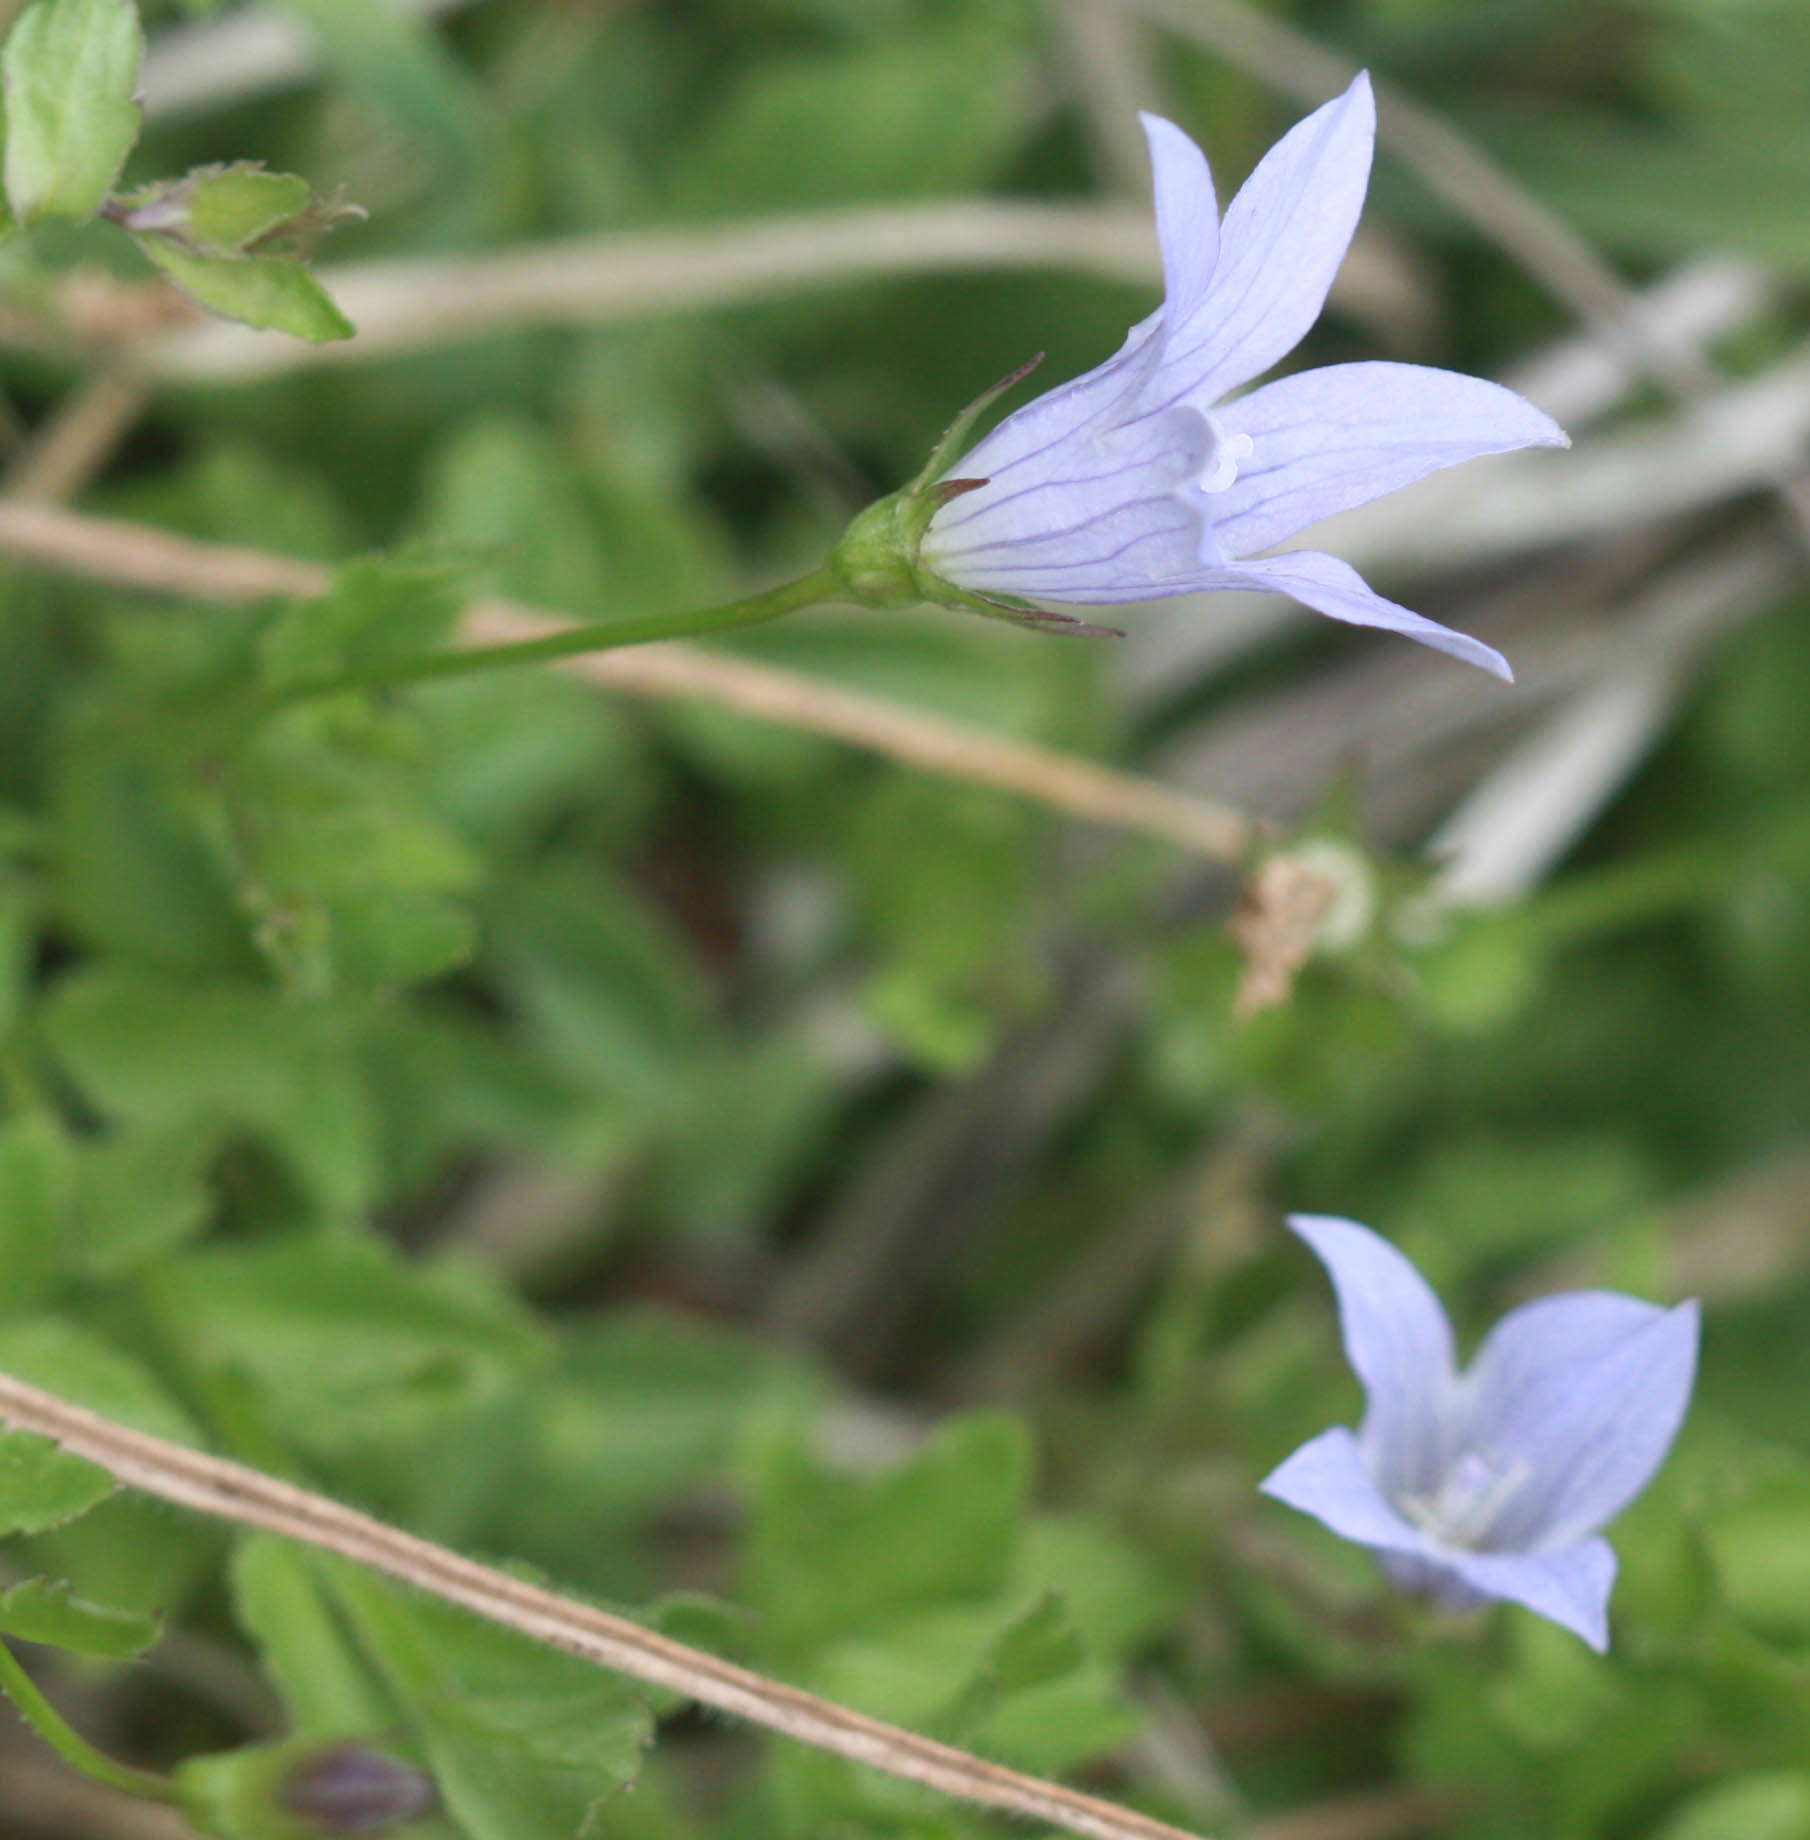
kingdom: Plantae
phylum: Tracheophyta
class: Magnoliopsida
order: Asterales
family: Campanulaceae
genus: Eastwoodiella
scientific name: Eastwoodiella californica
